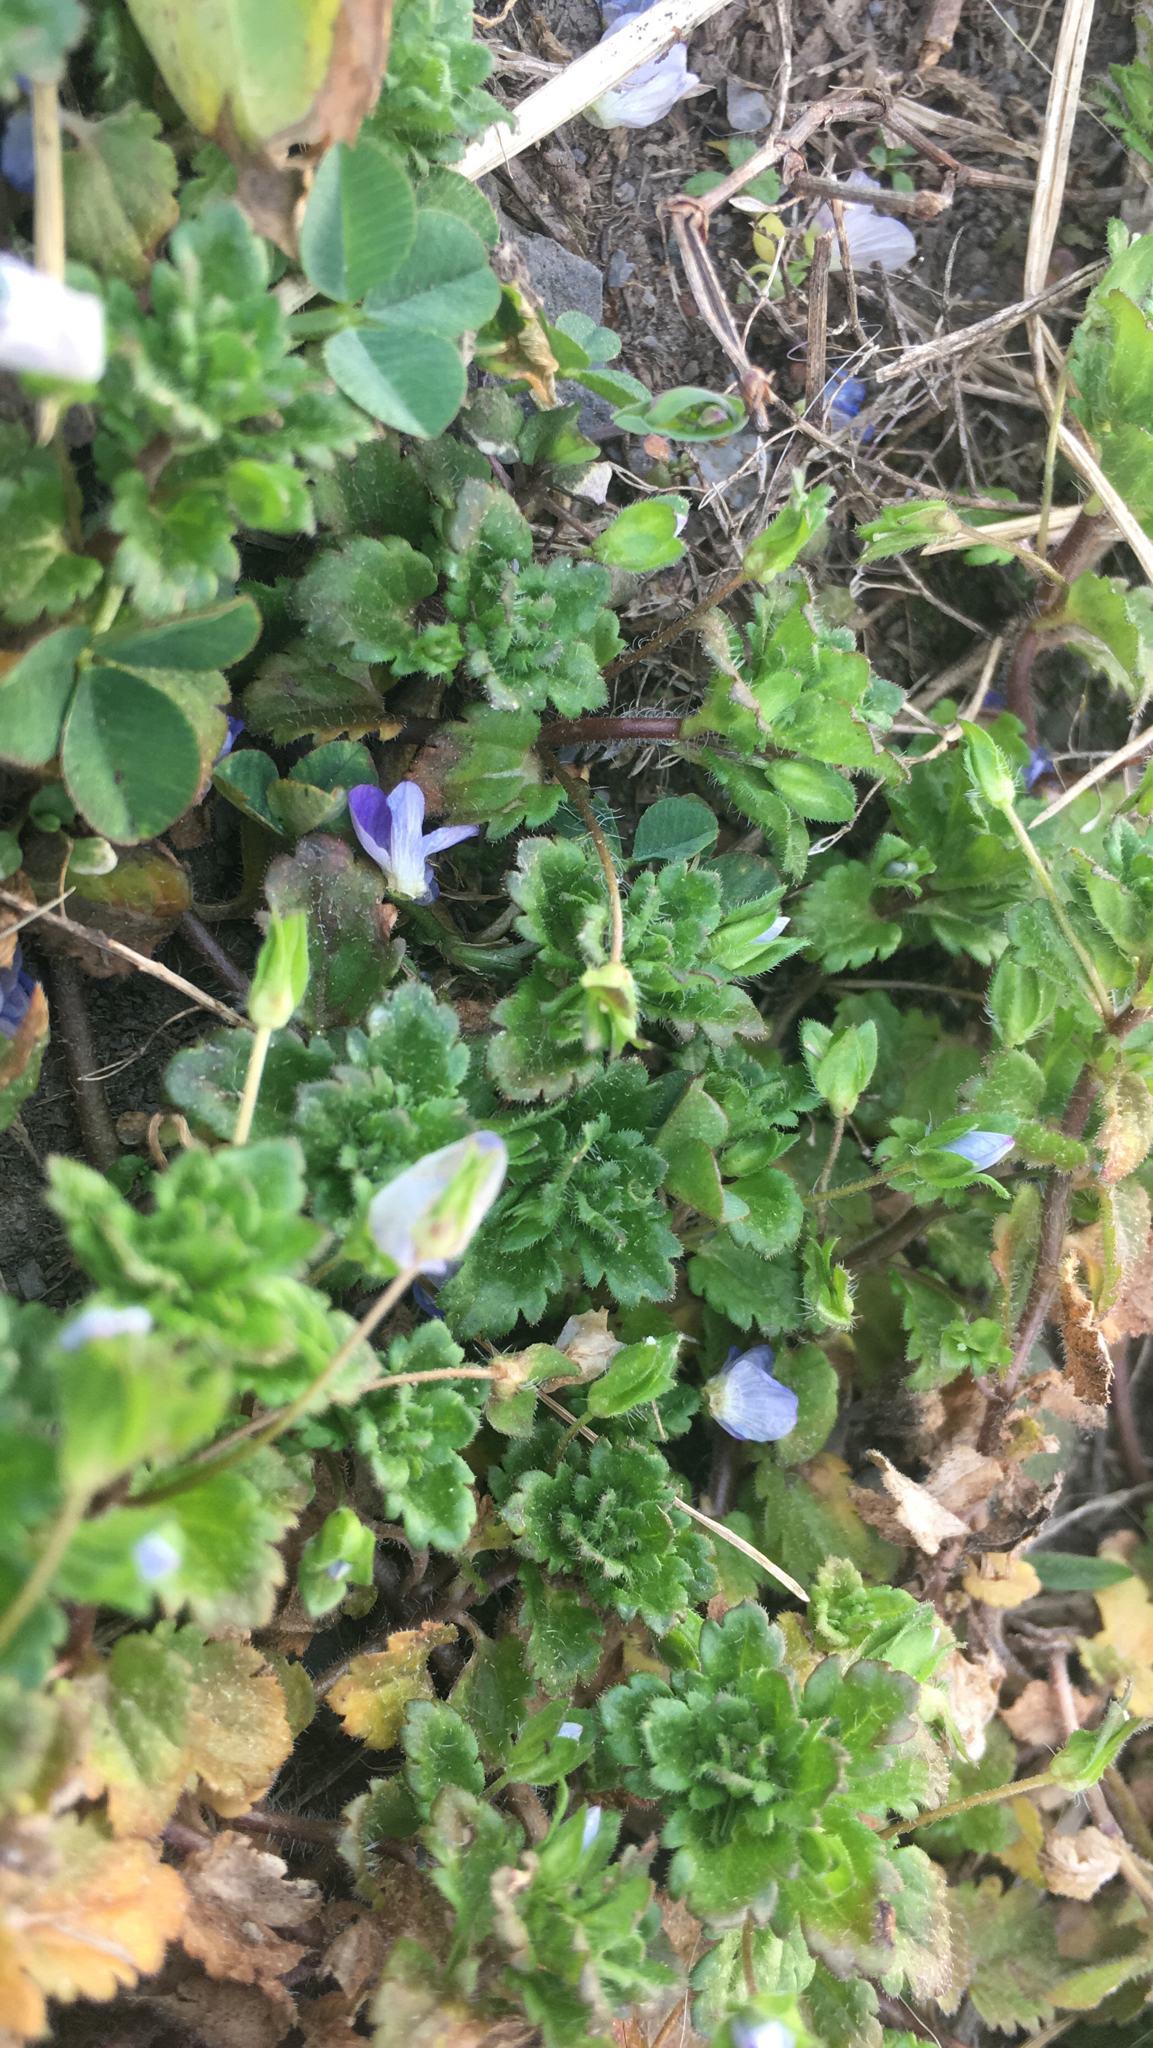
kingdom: Plantae
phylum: Tracheophyta
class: Magnoliopsida
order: Lamiales
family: Plantaginaceae
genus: Veronica
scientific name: Veronica persica
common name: Common field-speedwell
